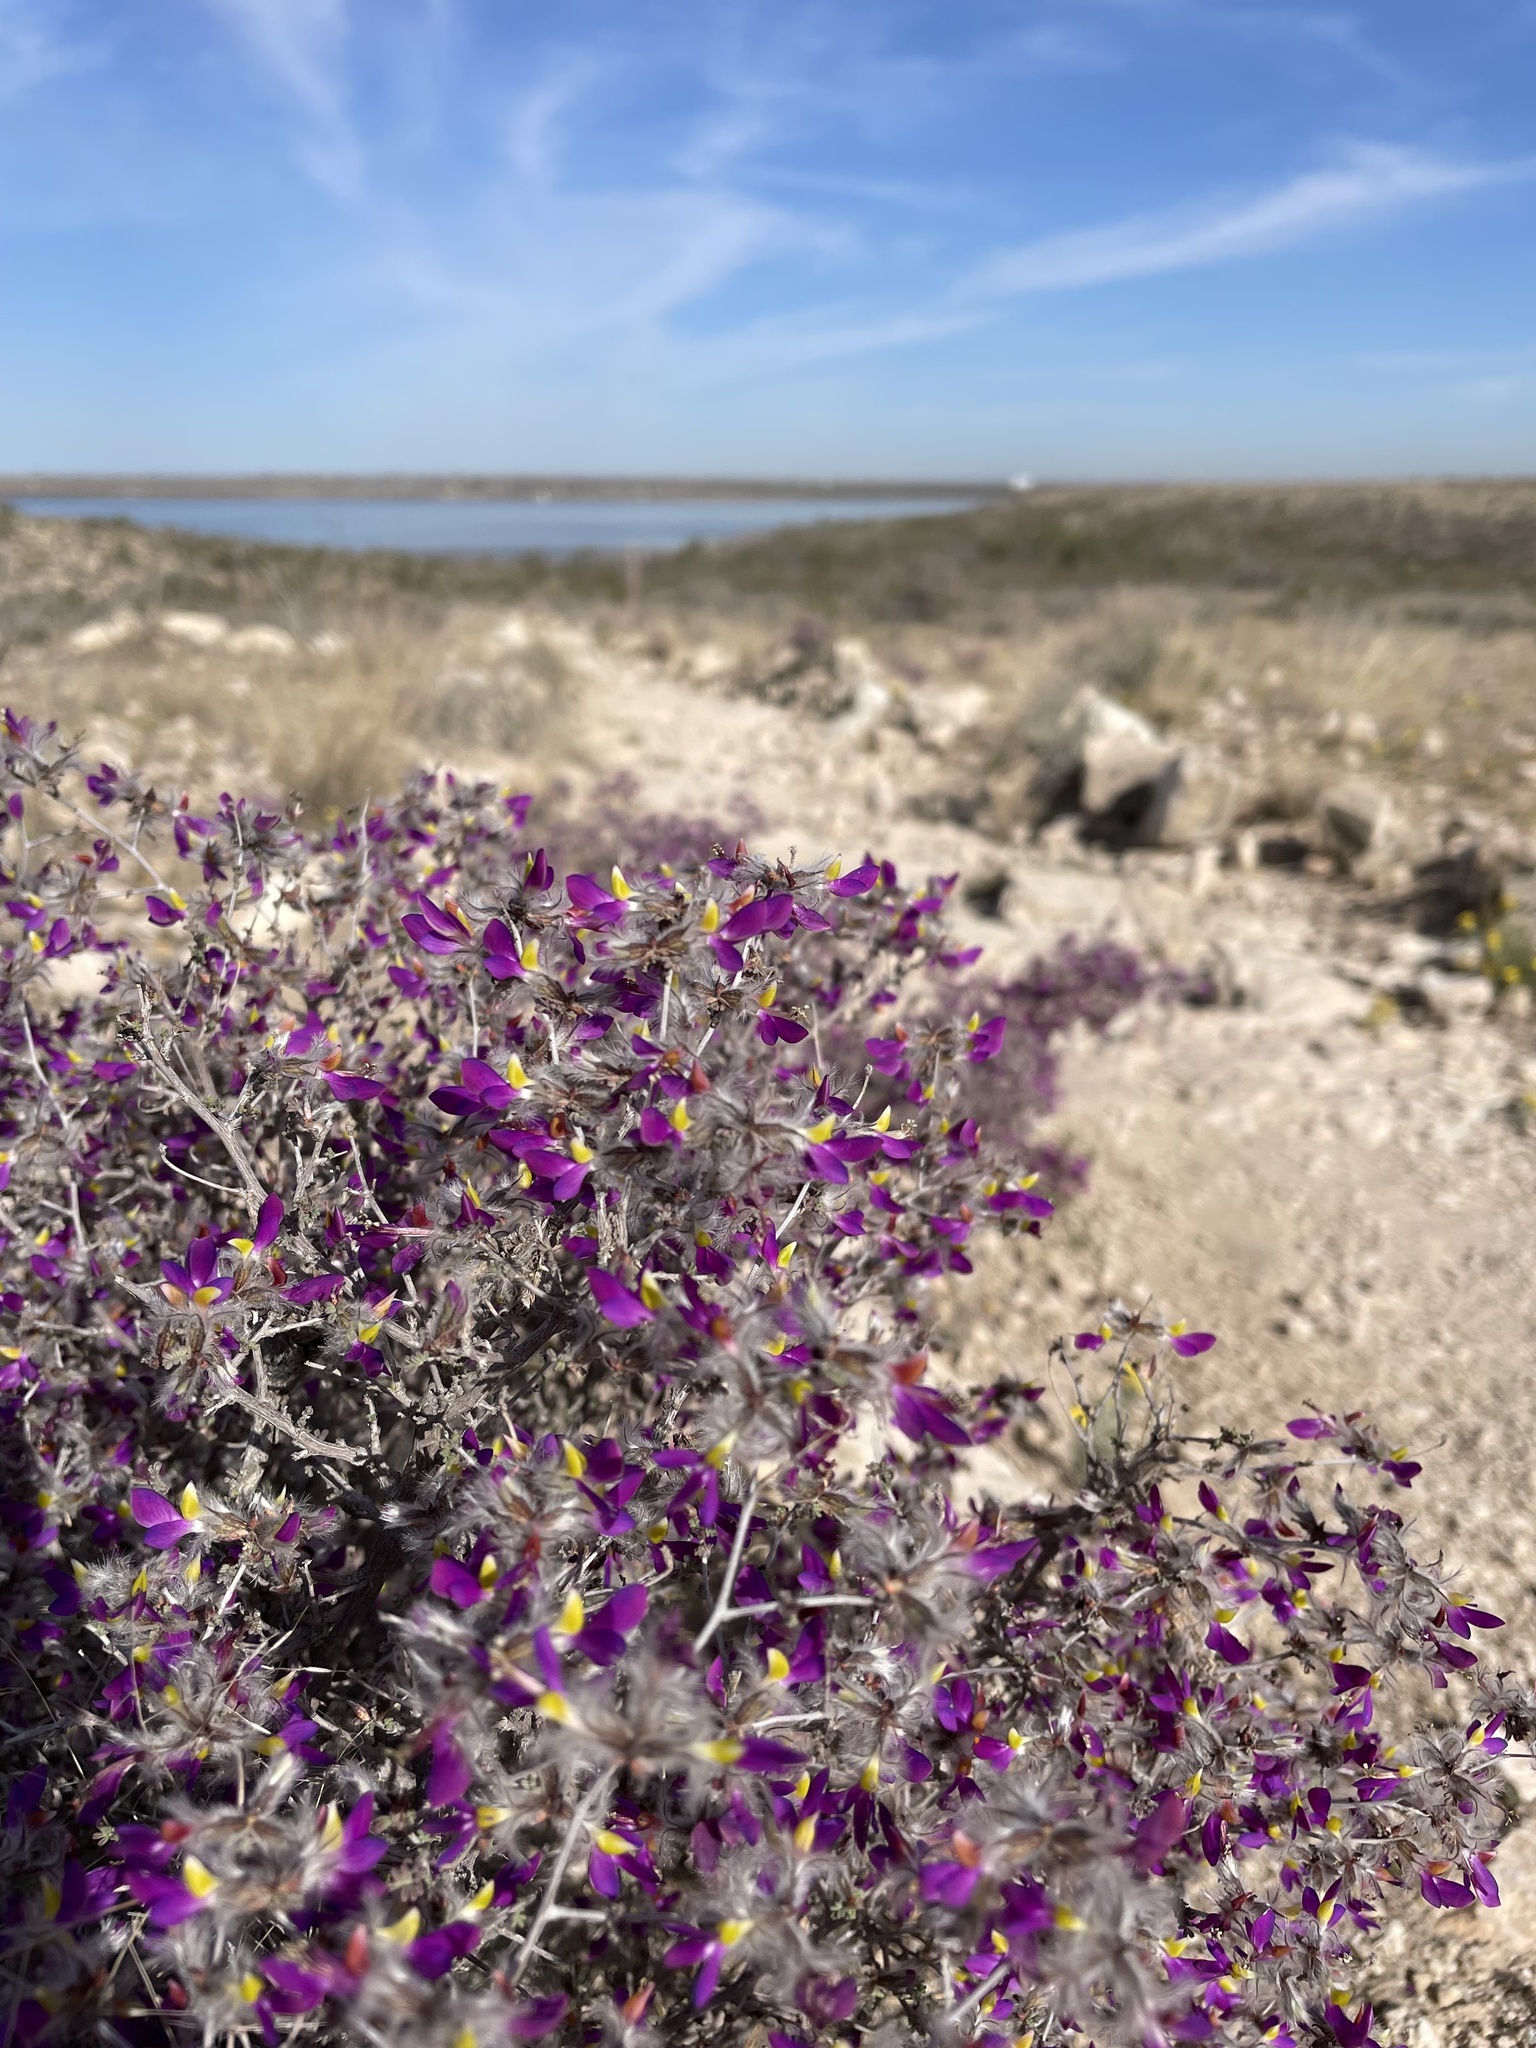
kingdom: Plantae
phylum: Tracheophyta
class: Magnoliopsida
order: Fabales
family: Fabaceae
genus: Dalea
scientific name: Dalea formosa
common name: Feather-plume dalea
